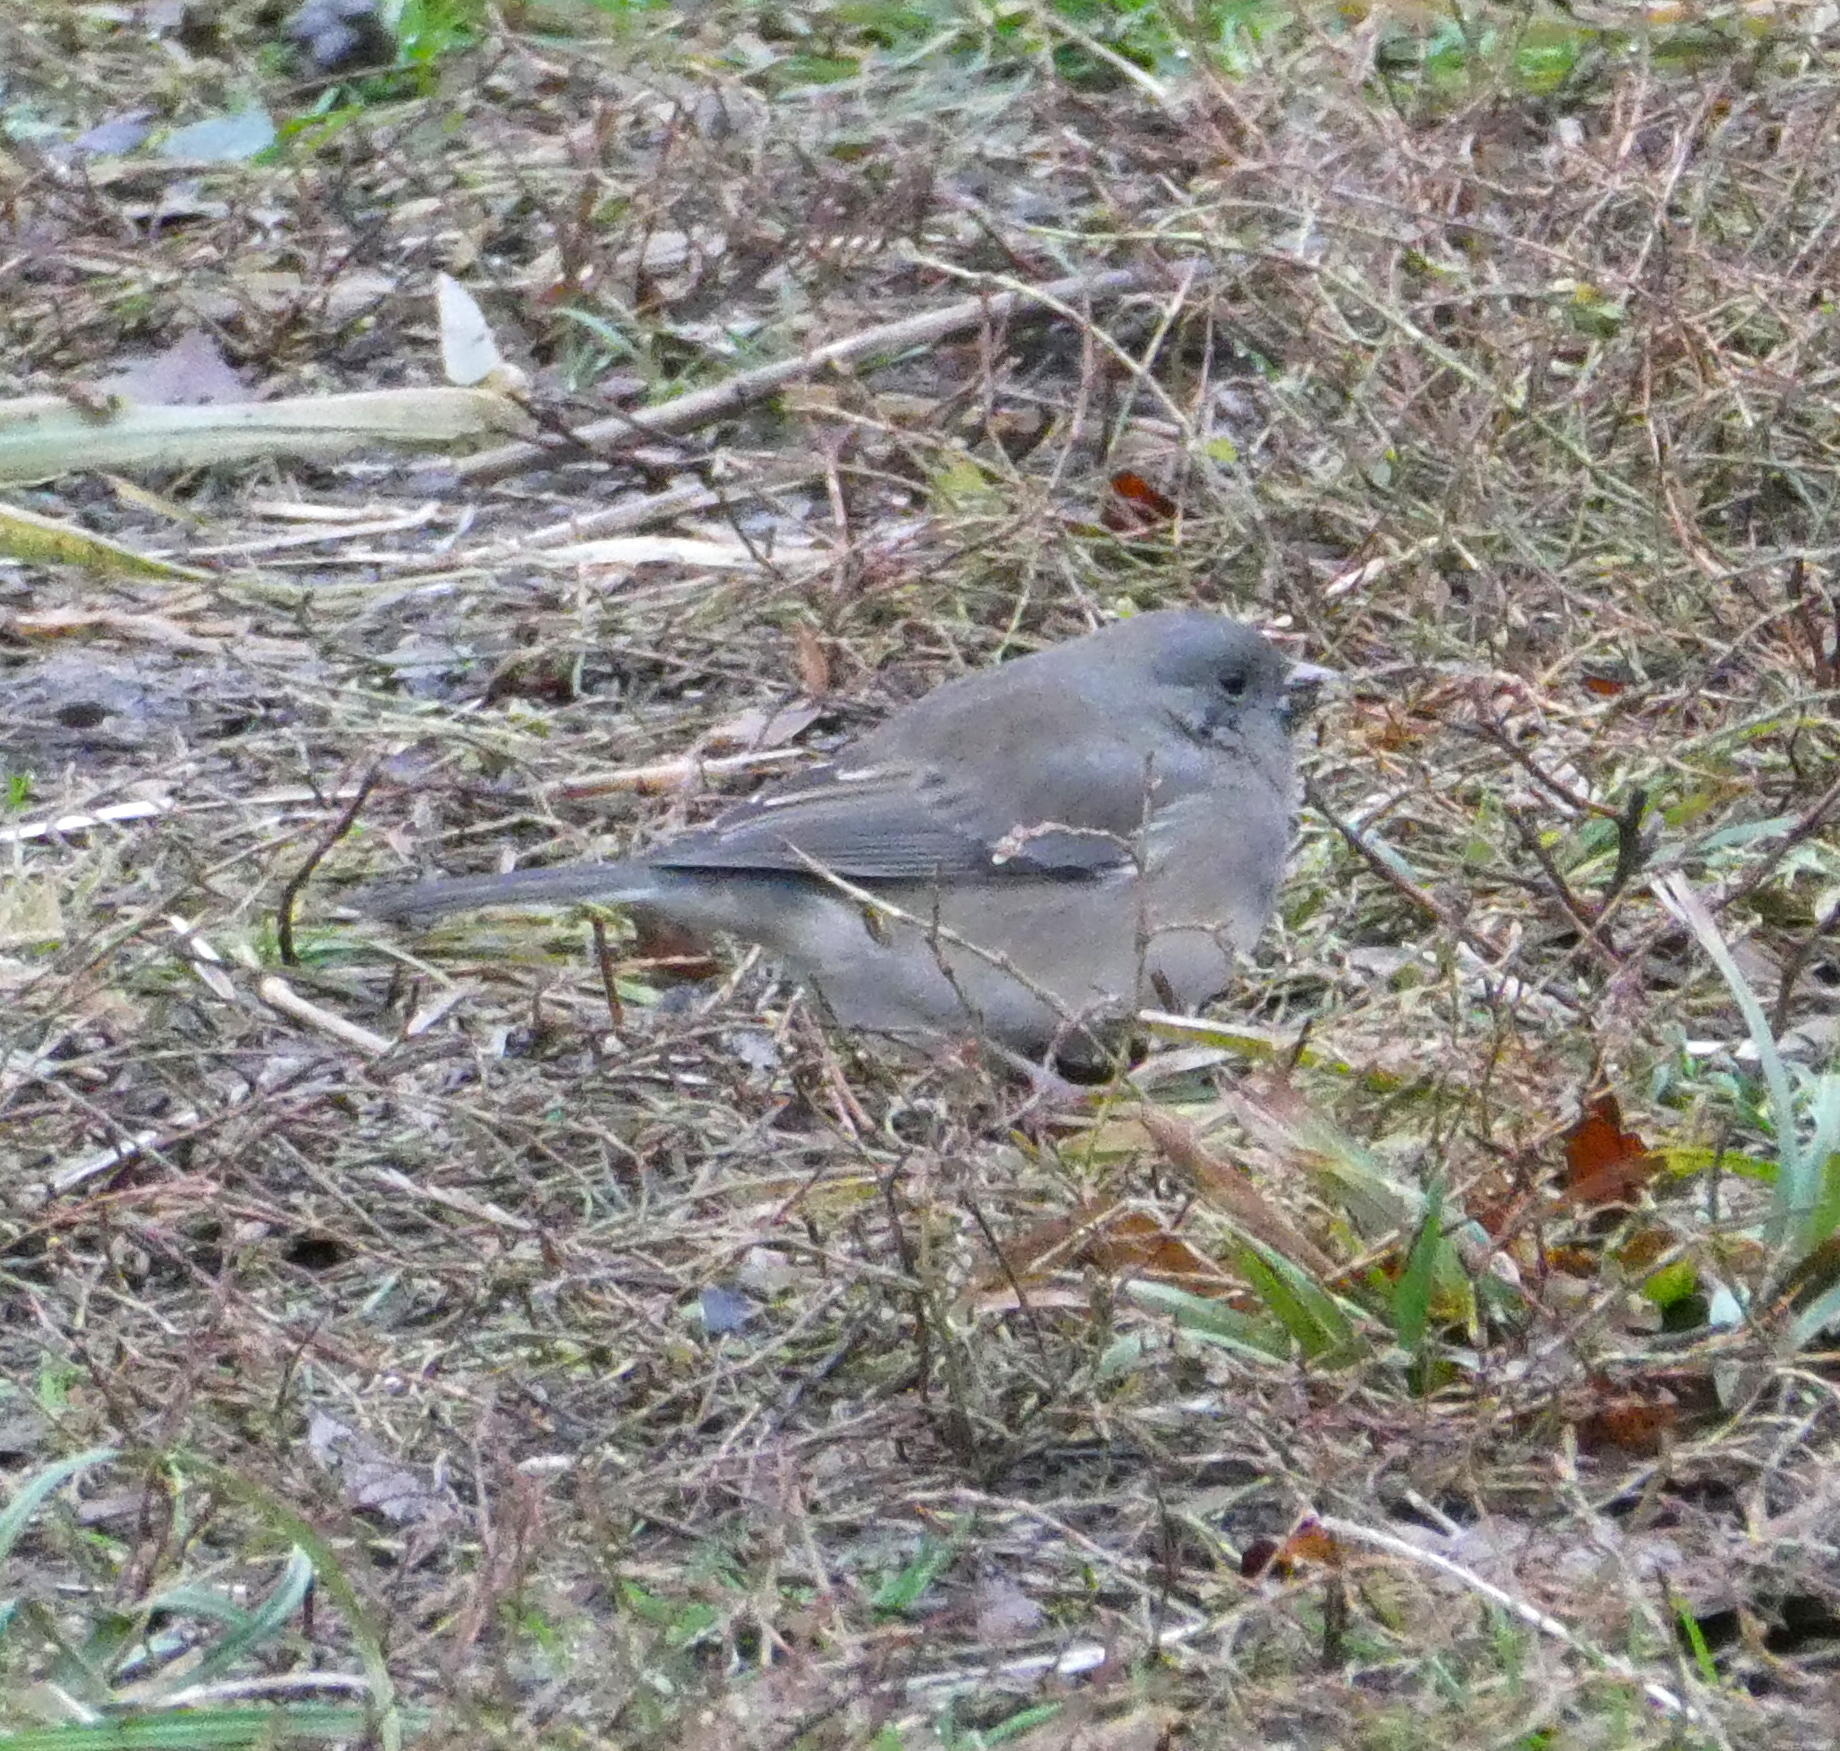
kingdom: Animalia
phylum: Chordata
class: Aves
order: Passeriformes
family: Passerellidae
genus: Junco
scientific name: Junco hyemalis
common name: Dark-eyed junco
